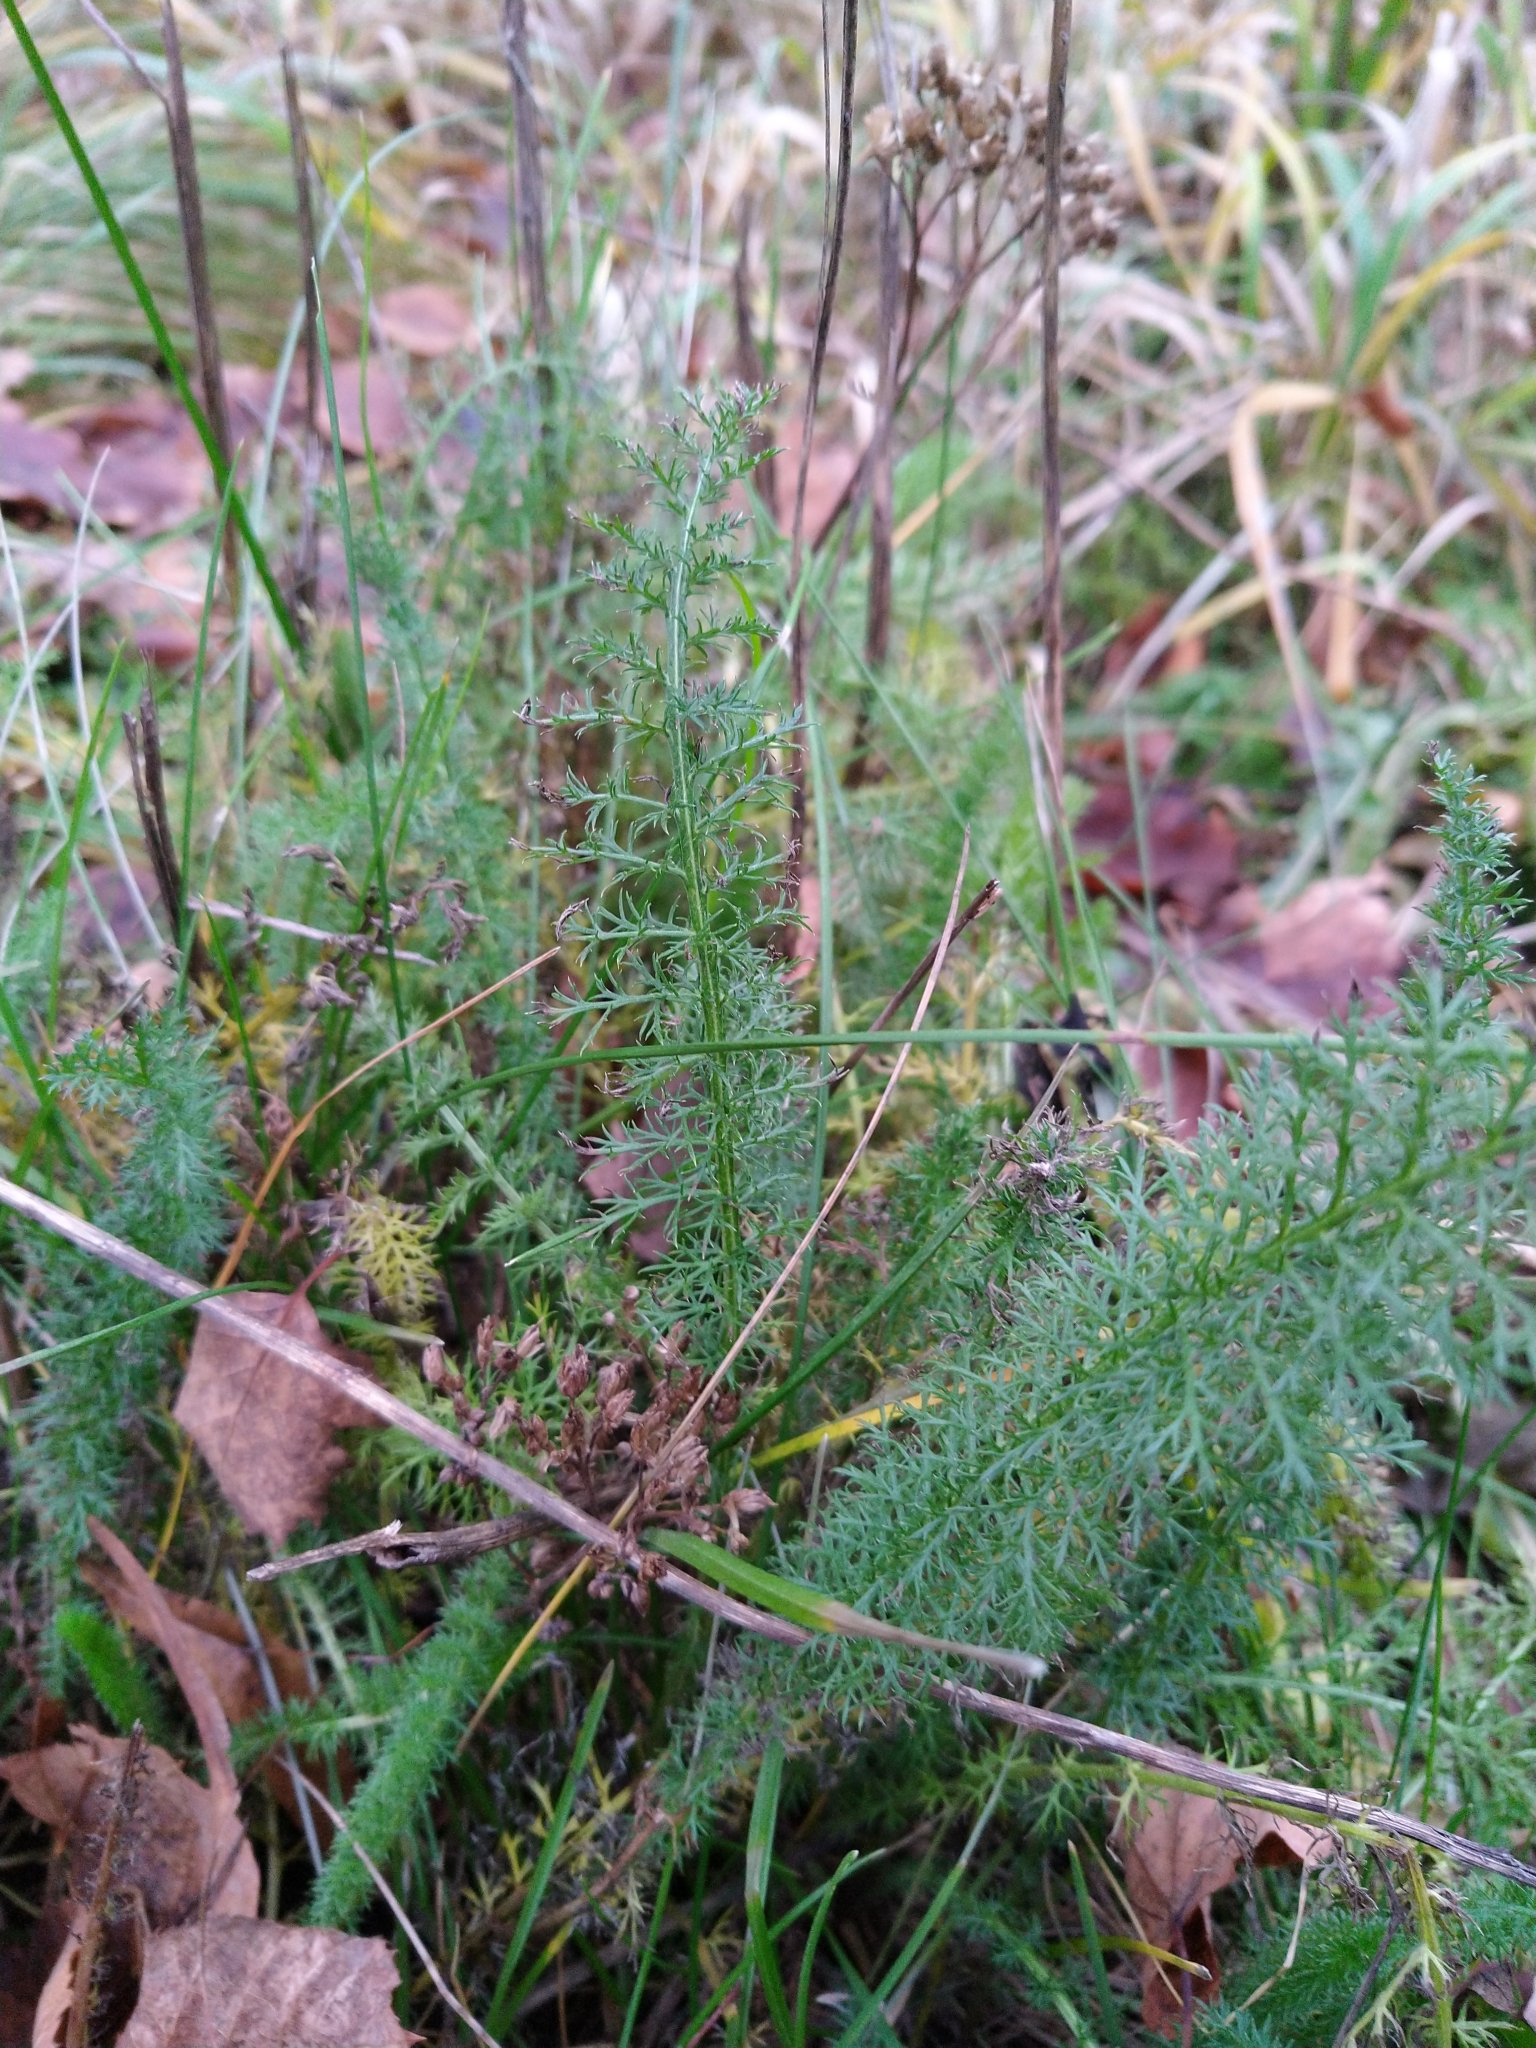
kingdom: Plantae
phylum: Tracheophyta
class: Magnoliopsida
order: Asterales
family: Asteraceae
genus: Achillea
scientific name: Achillea millefolium
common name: Yarrow
